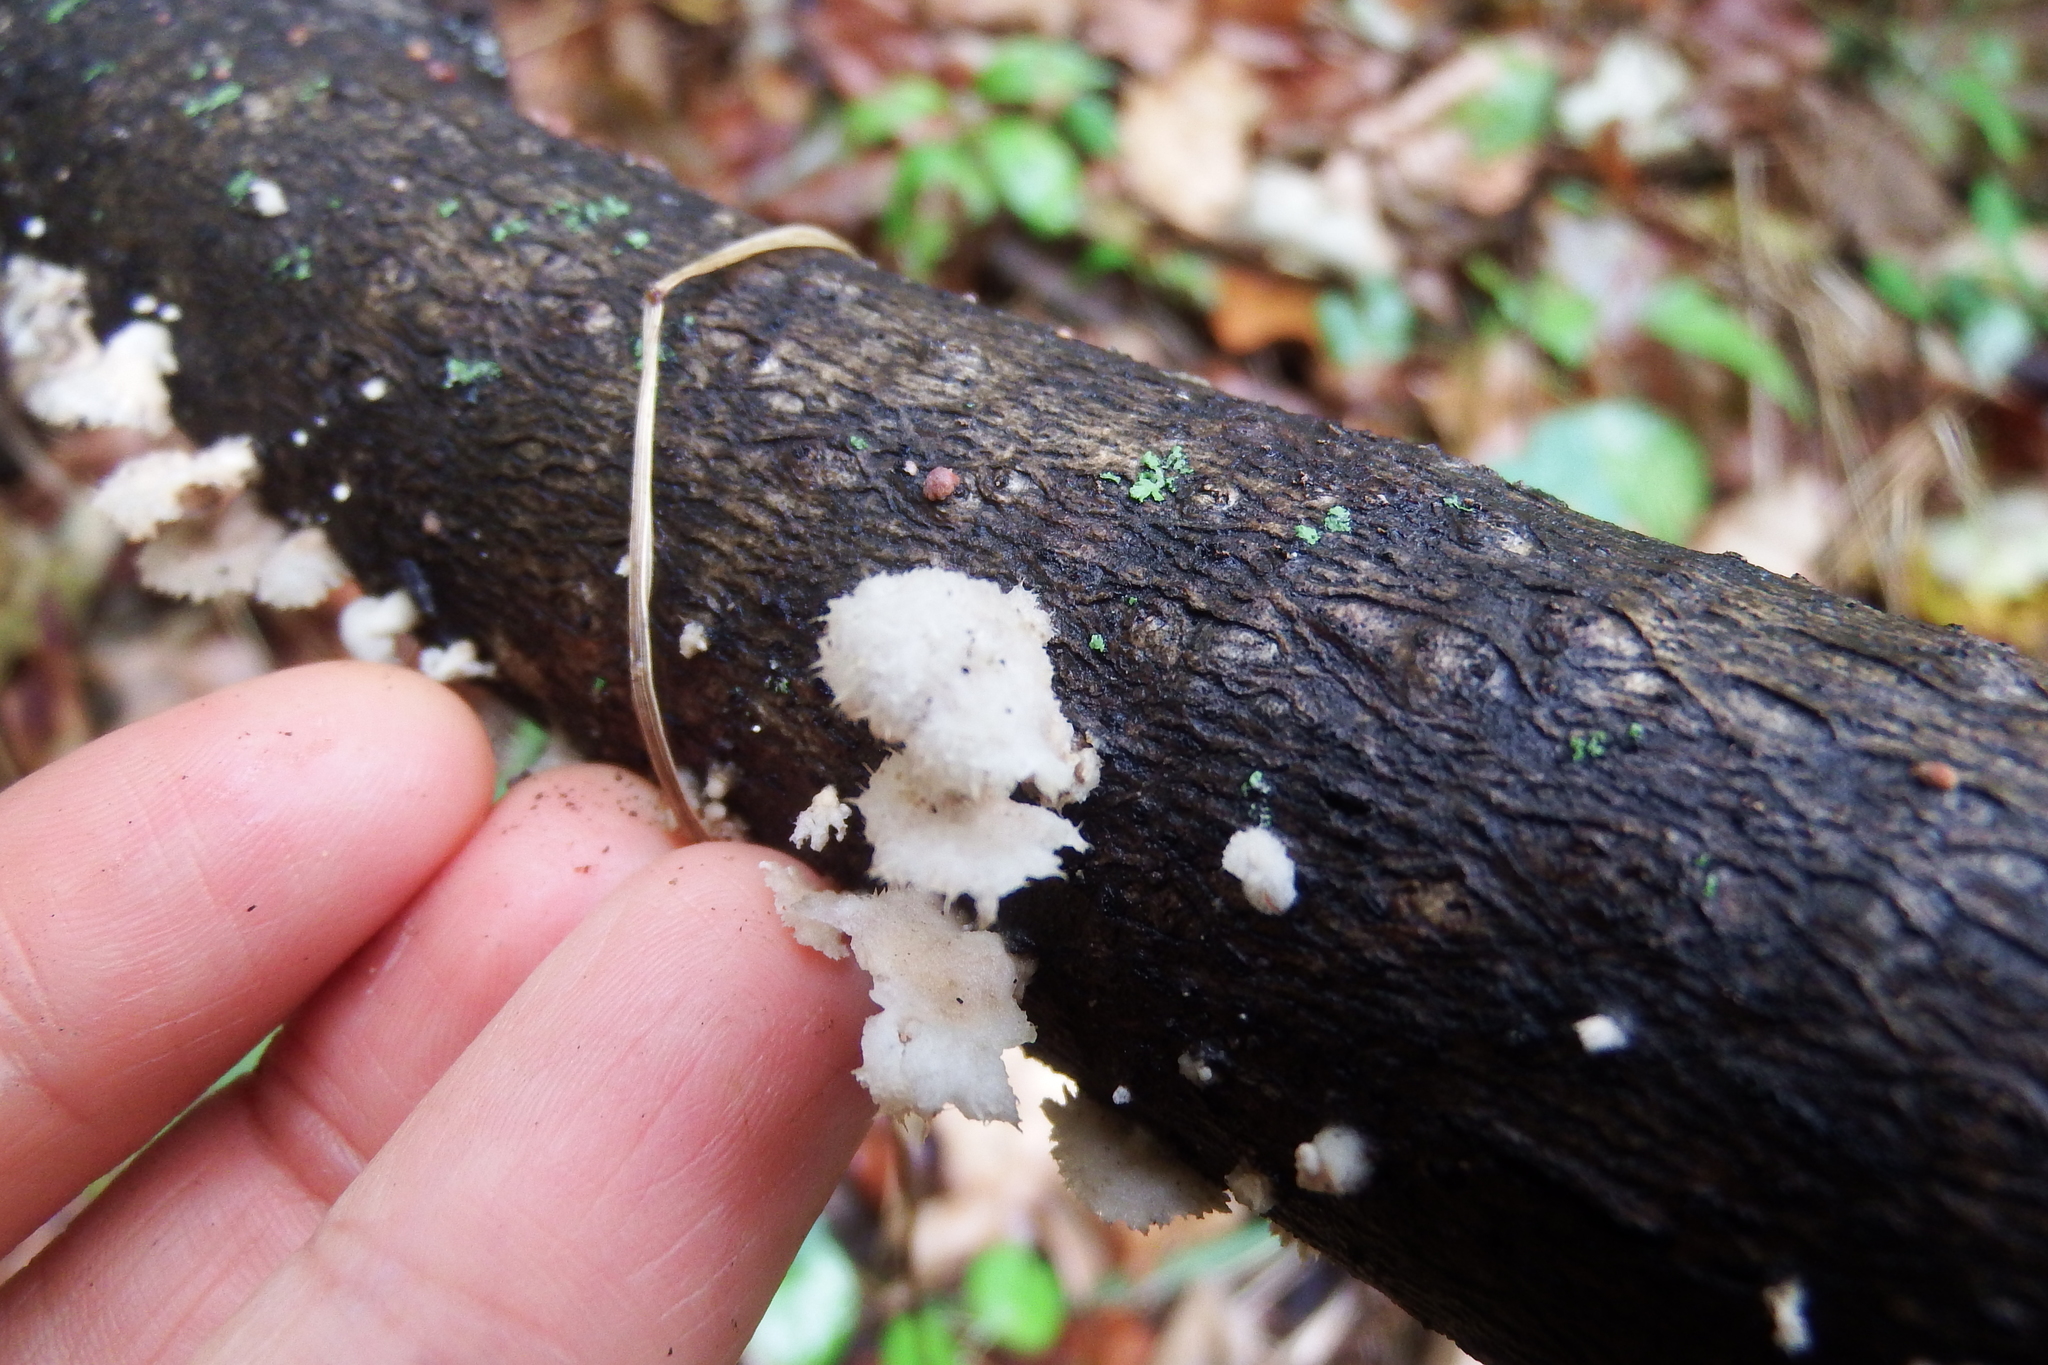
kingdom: Fungi
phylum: Basidiomycota
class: Agaricomycetes
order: Agaricales
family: Schizophyllaceae
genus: Schizophyllum
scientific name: Schizophyllum commune
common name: Common porecrust
